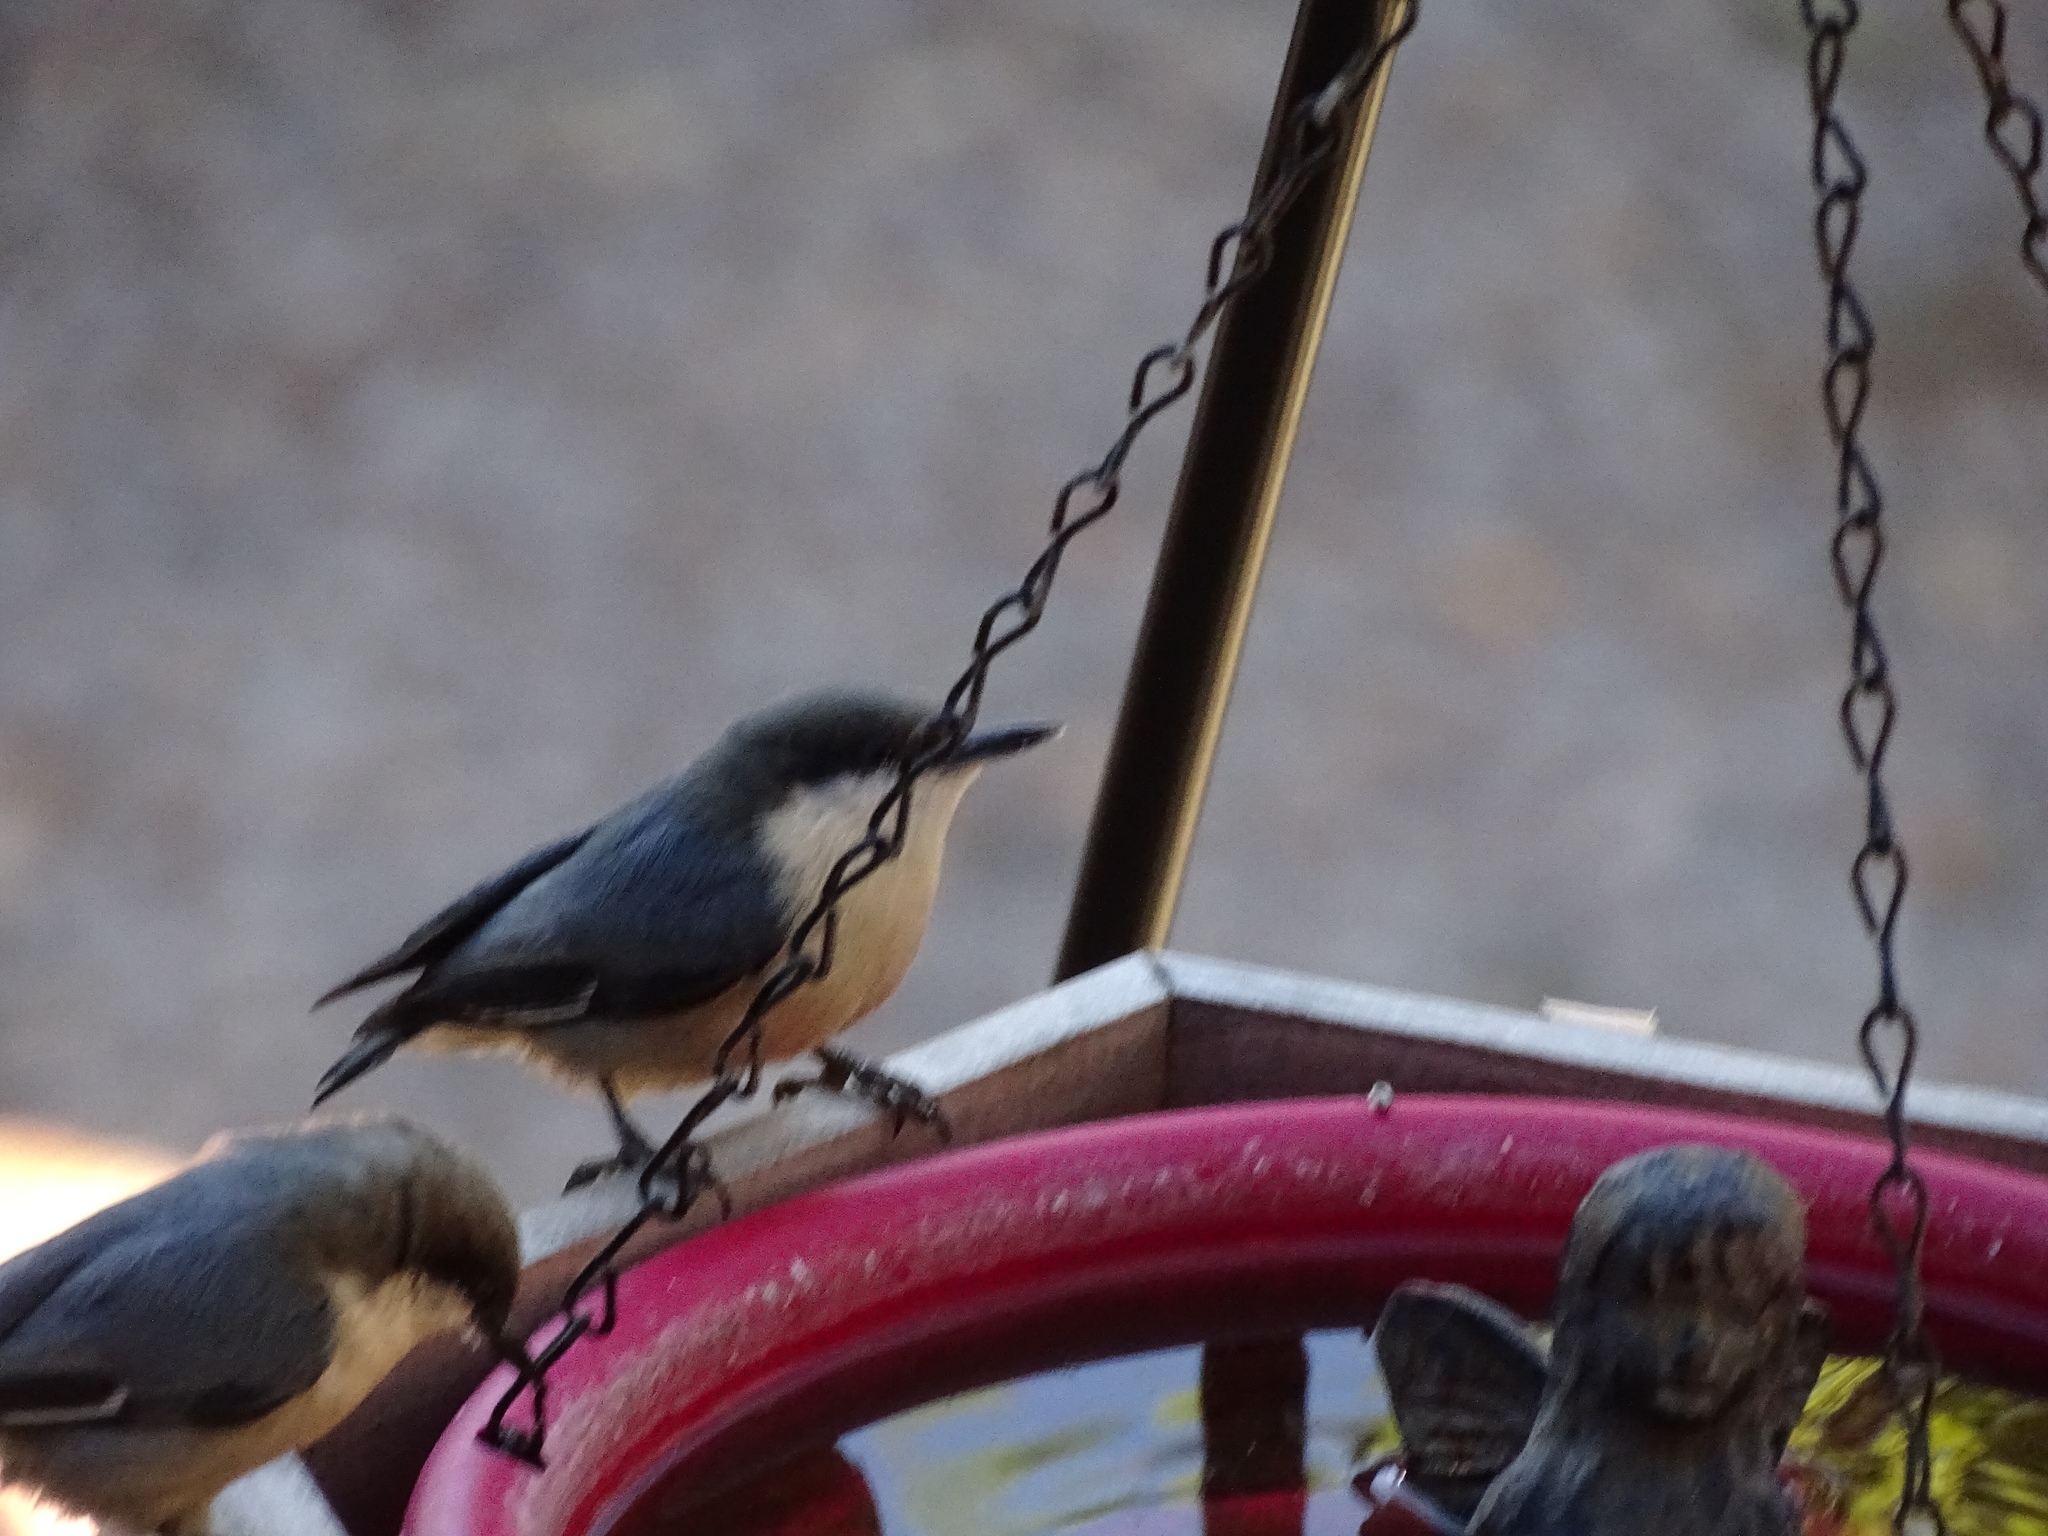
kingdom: Animalia
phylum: Chordata
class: Aves
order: Passeriformes
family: Sittidae
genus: Sitta
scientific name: Sitta pygmaea
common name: Pygmy nuthatch
